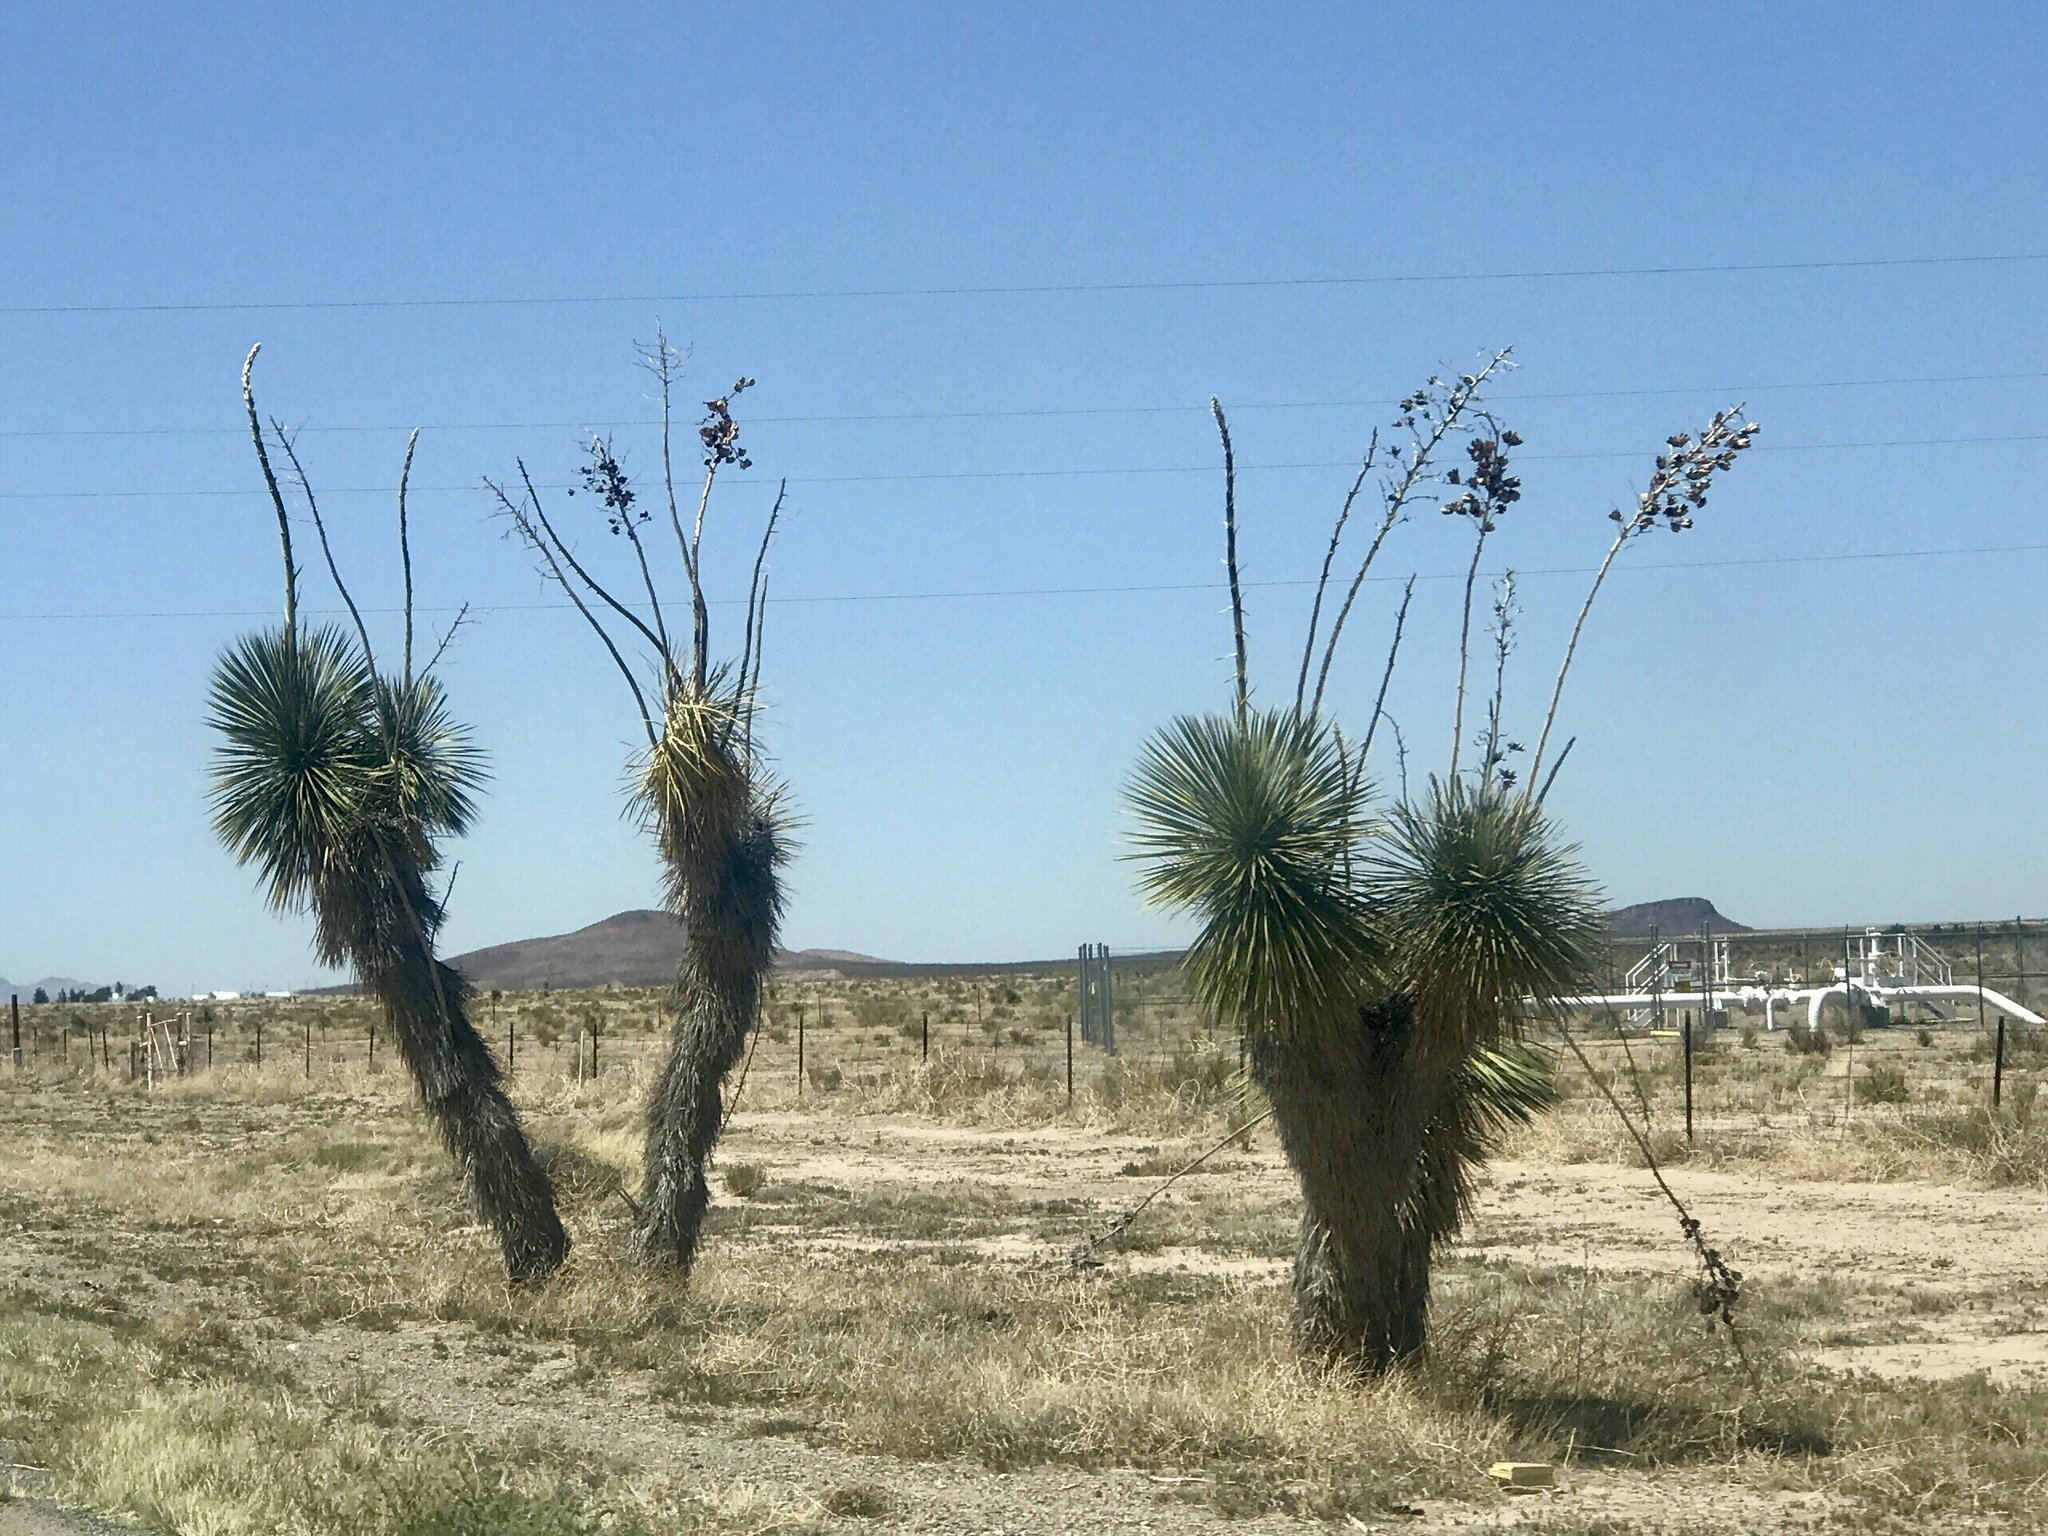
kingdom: Plantae
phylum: Tracheophyta
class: Liliopsida
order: Asparagales
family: Asparagaceae
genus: Yucca
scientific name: Yucca elata
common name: Palmella
